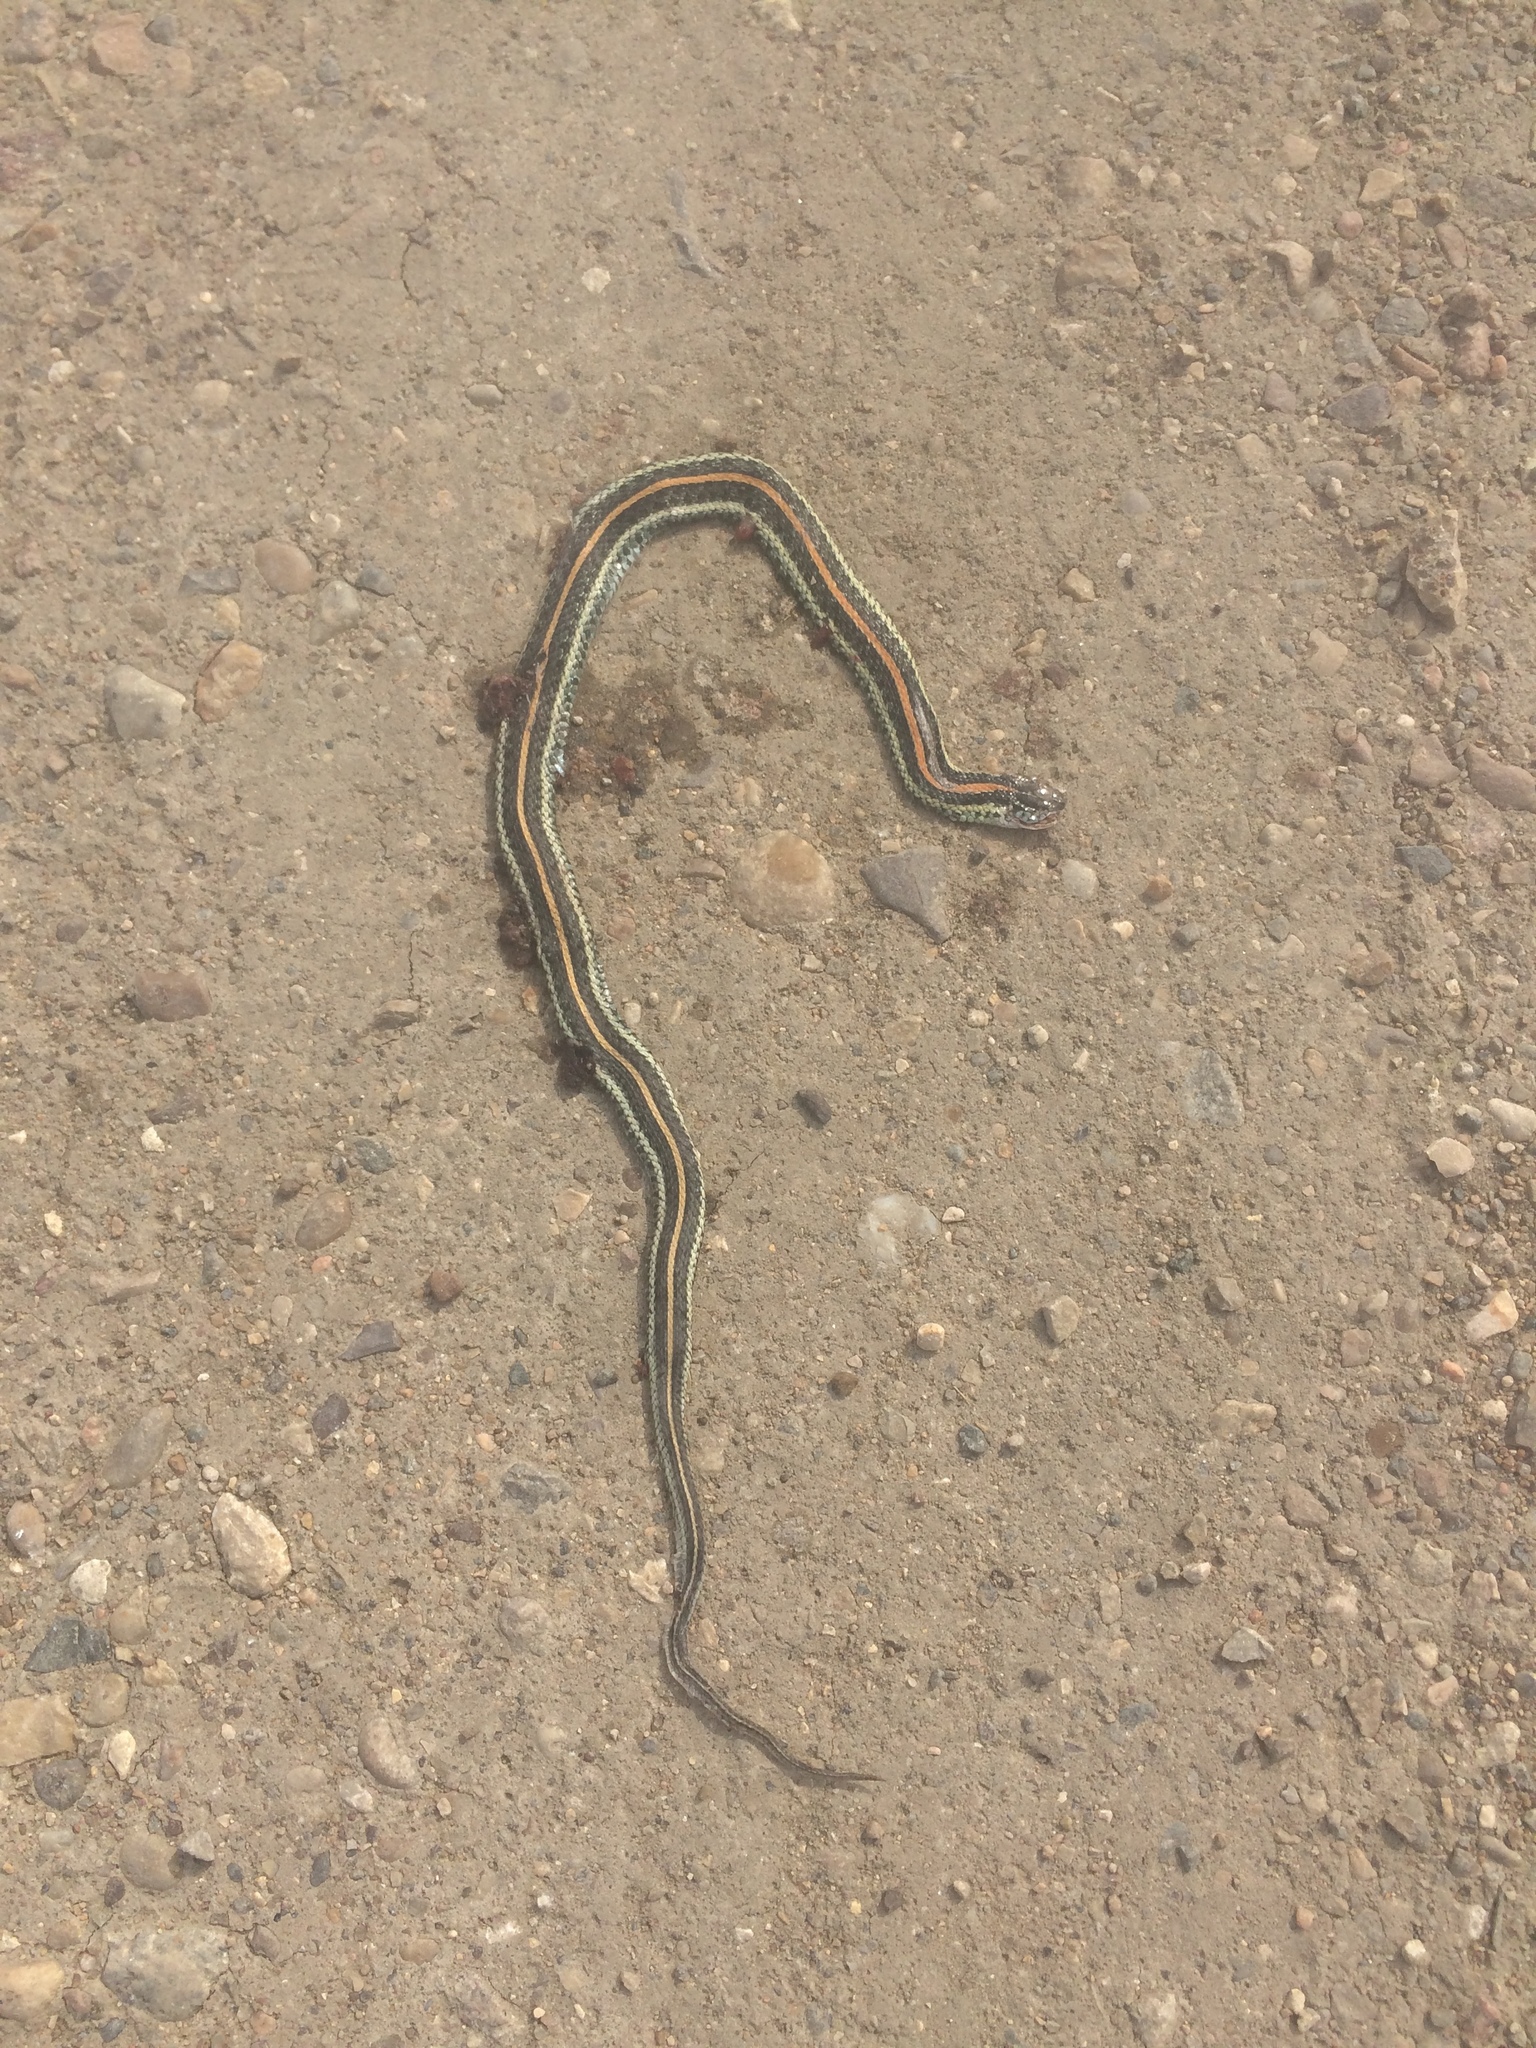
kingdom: Animalia
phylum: Chordata
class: Squamata
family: Colubridae
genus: Thamnophis
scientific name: Thamnophis radix
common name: Plains garter snake
